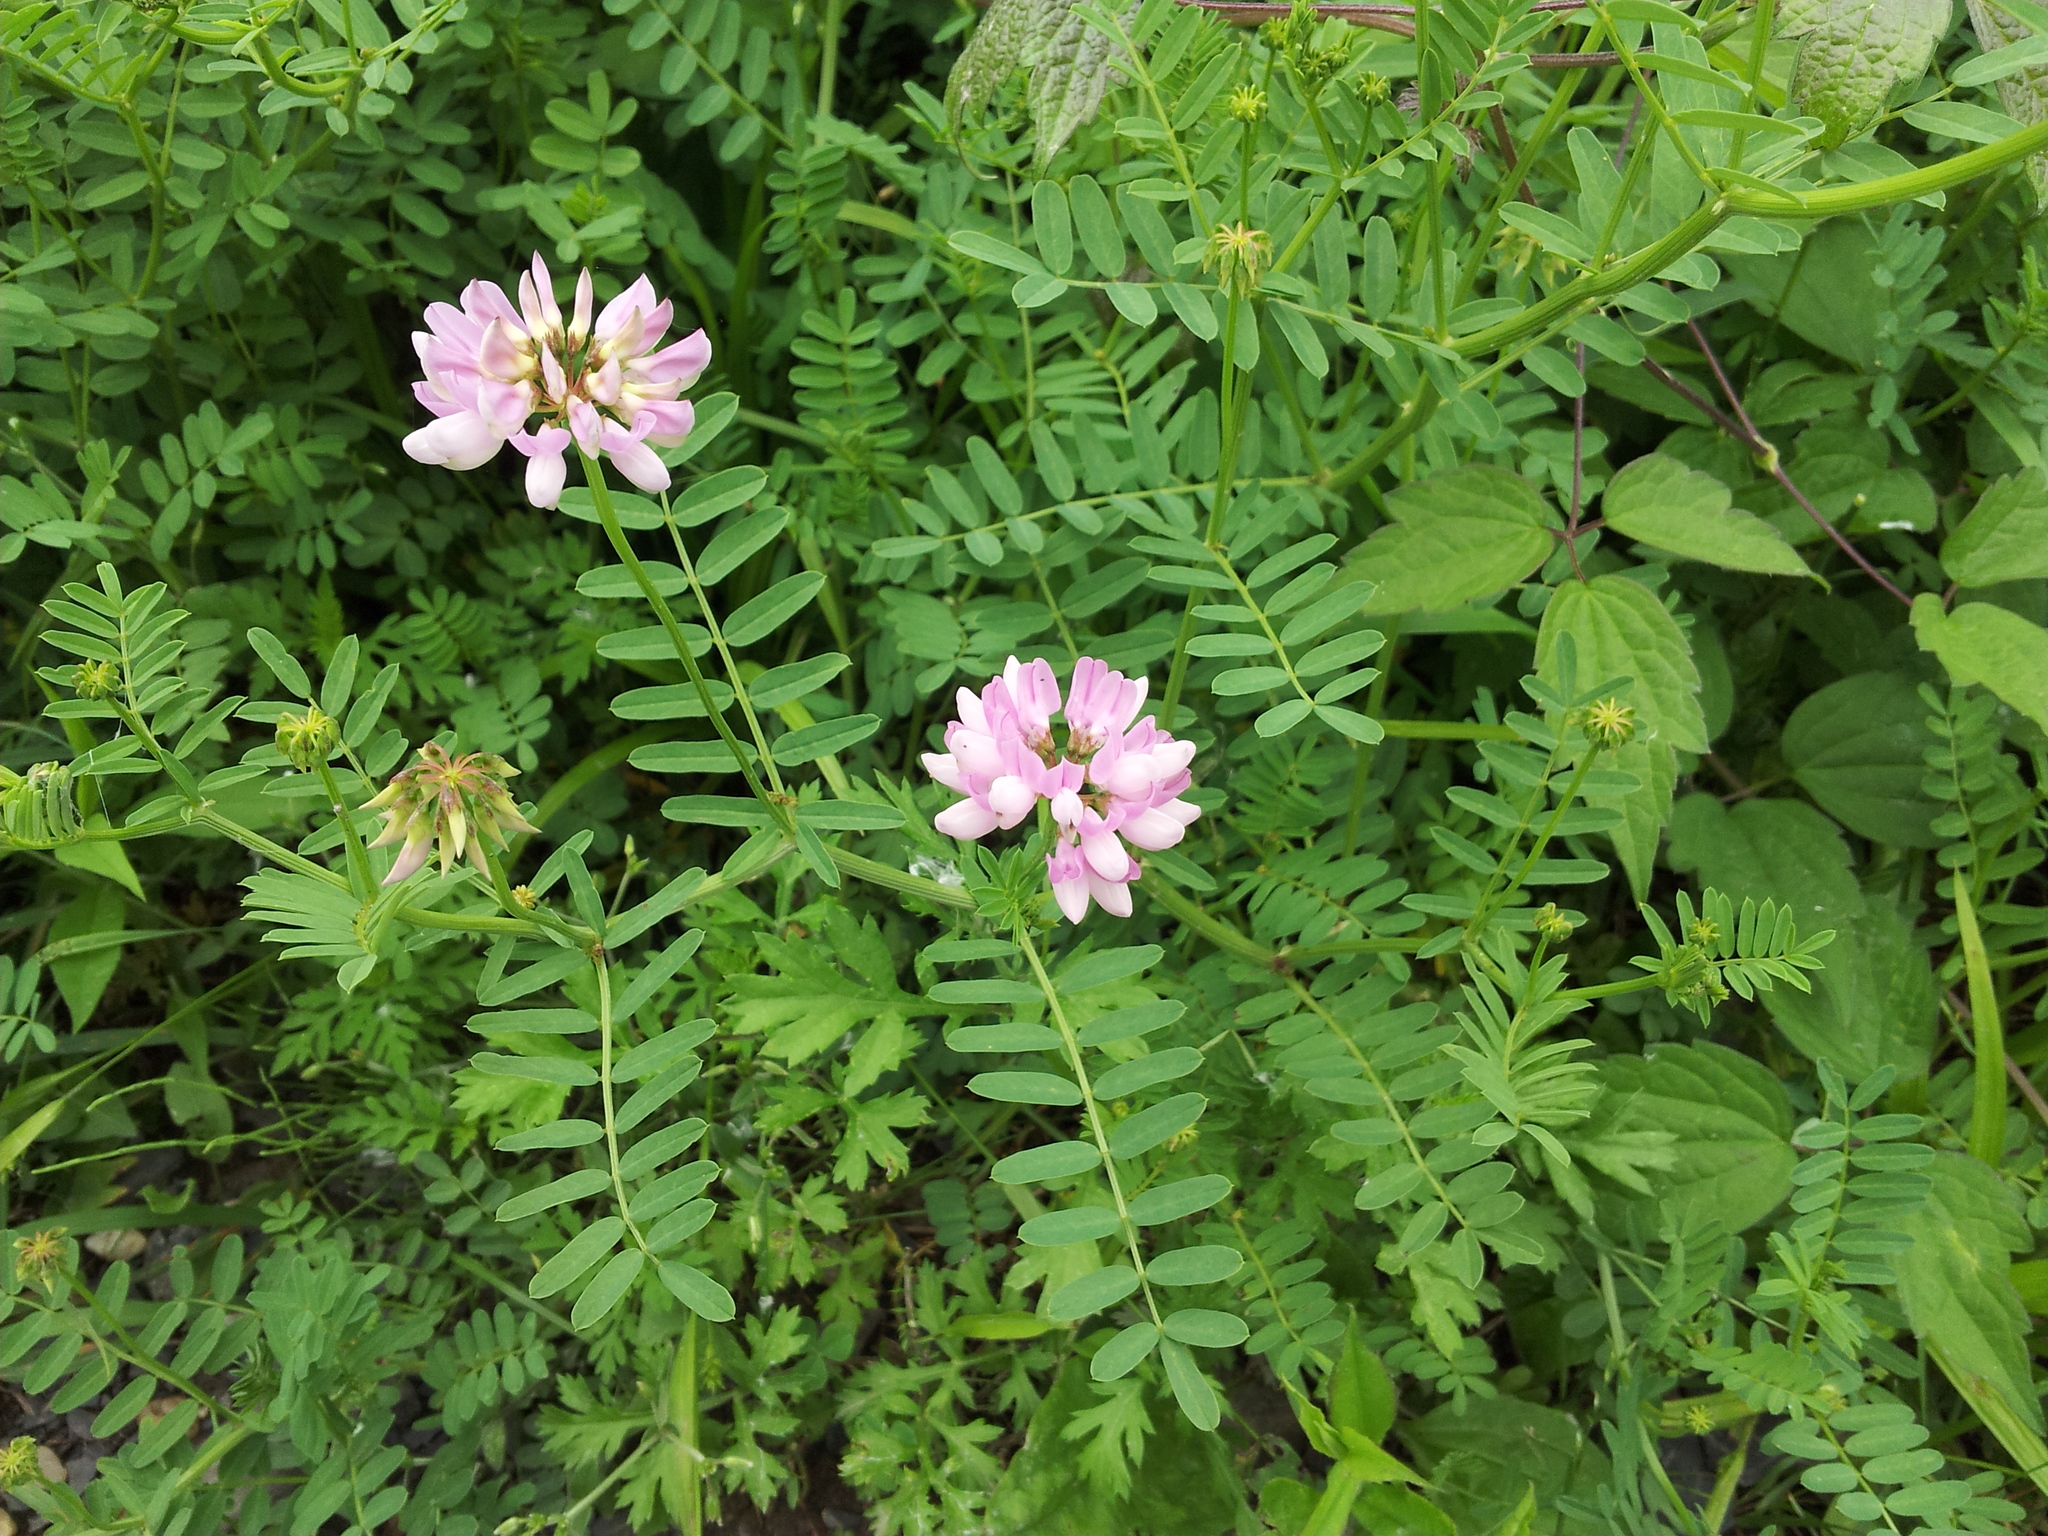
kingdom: Plantae
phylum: Tracheophyta
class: Magnoliopsida
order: Fabales
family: Fabaceae
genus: Coronilla
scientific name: Coronilla varia
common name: Crownvetch
